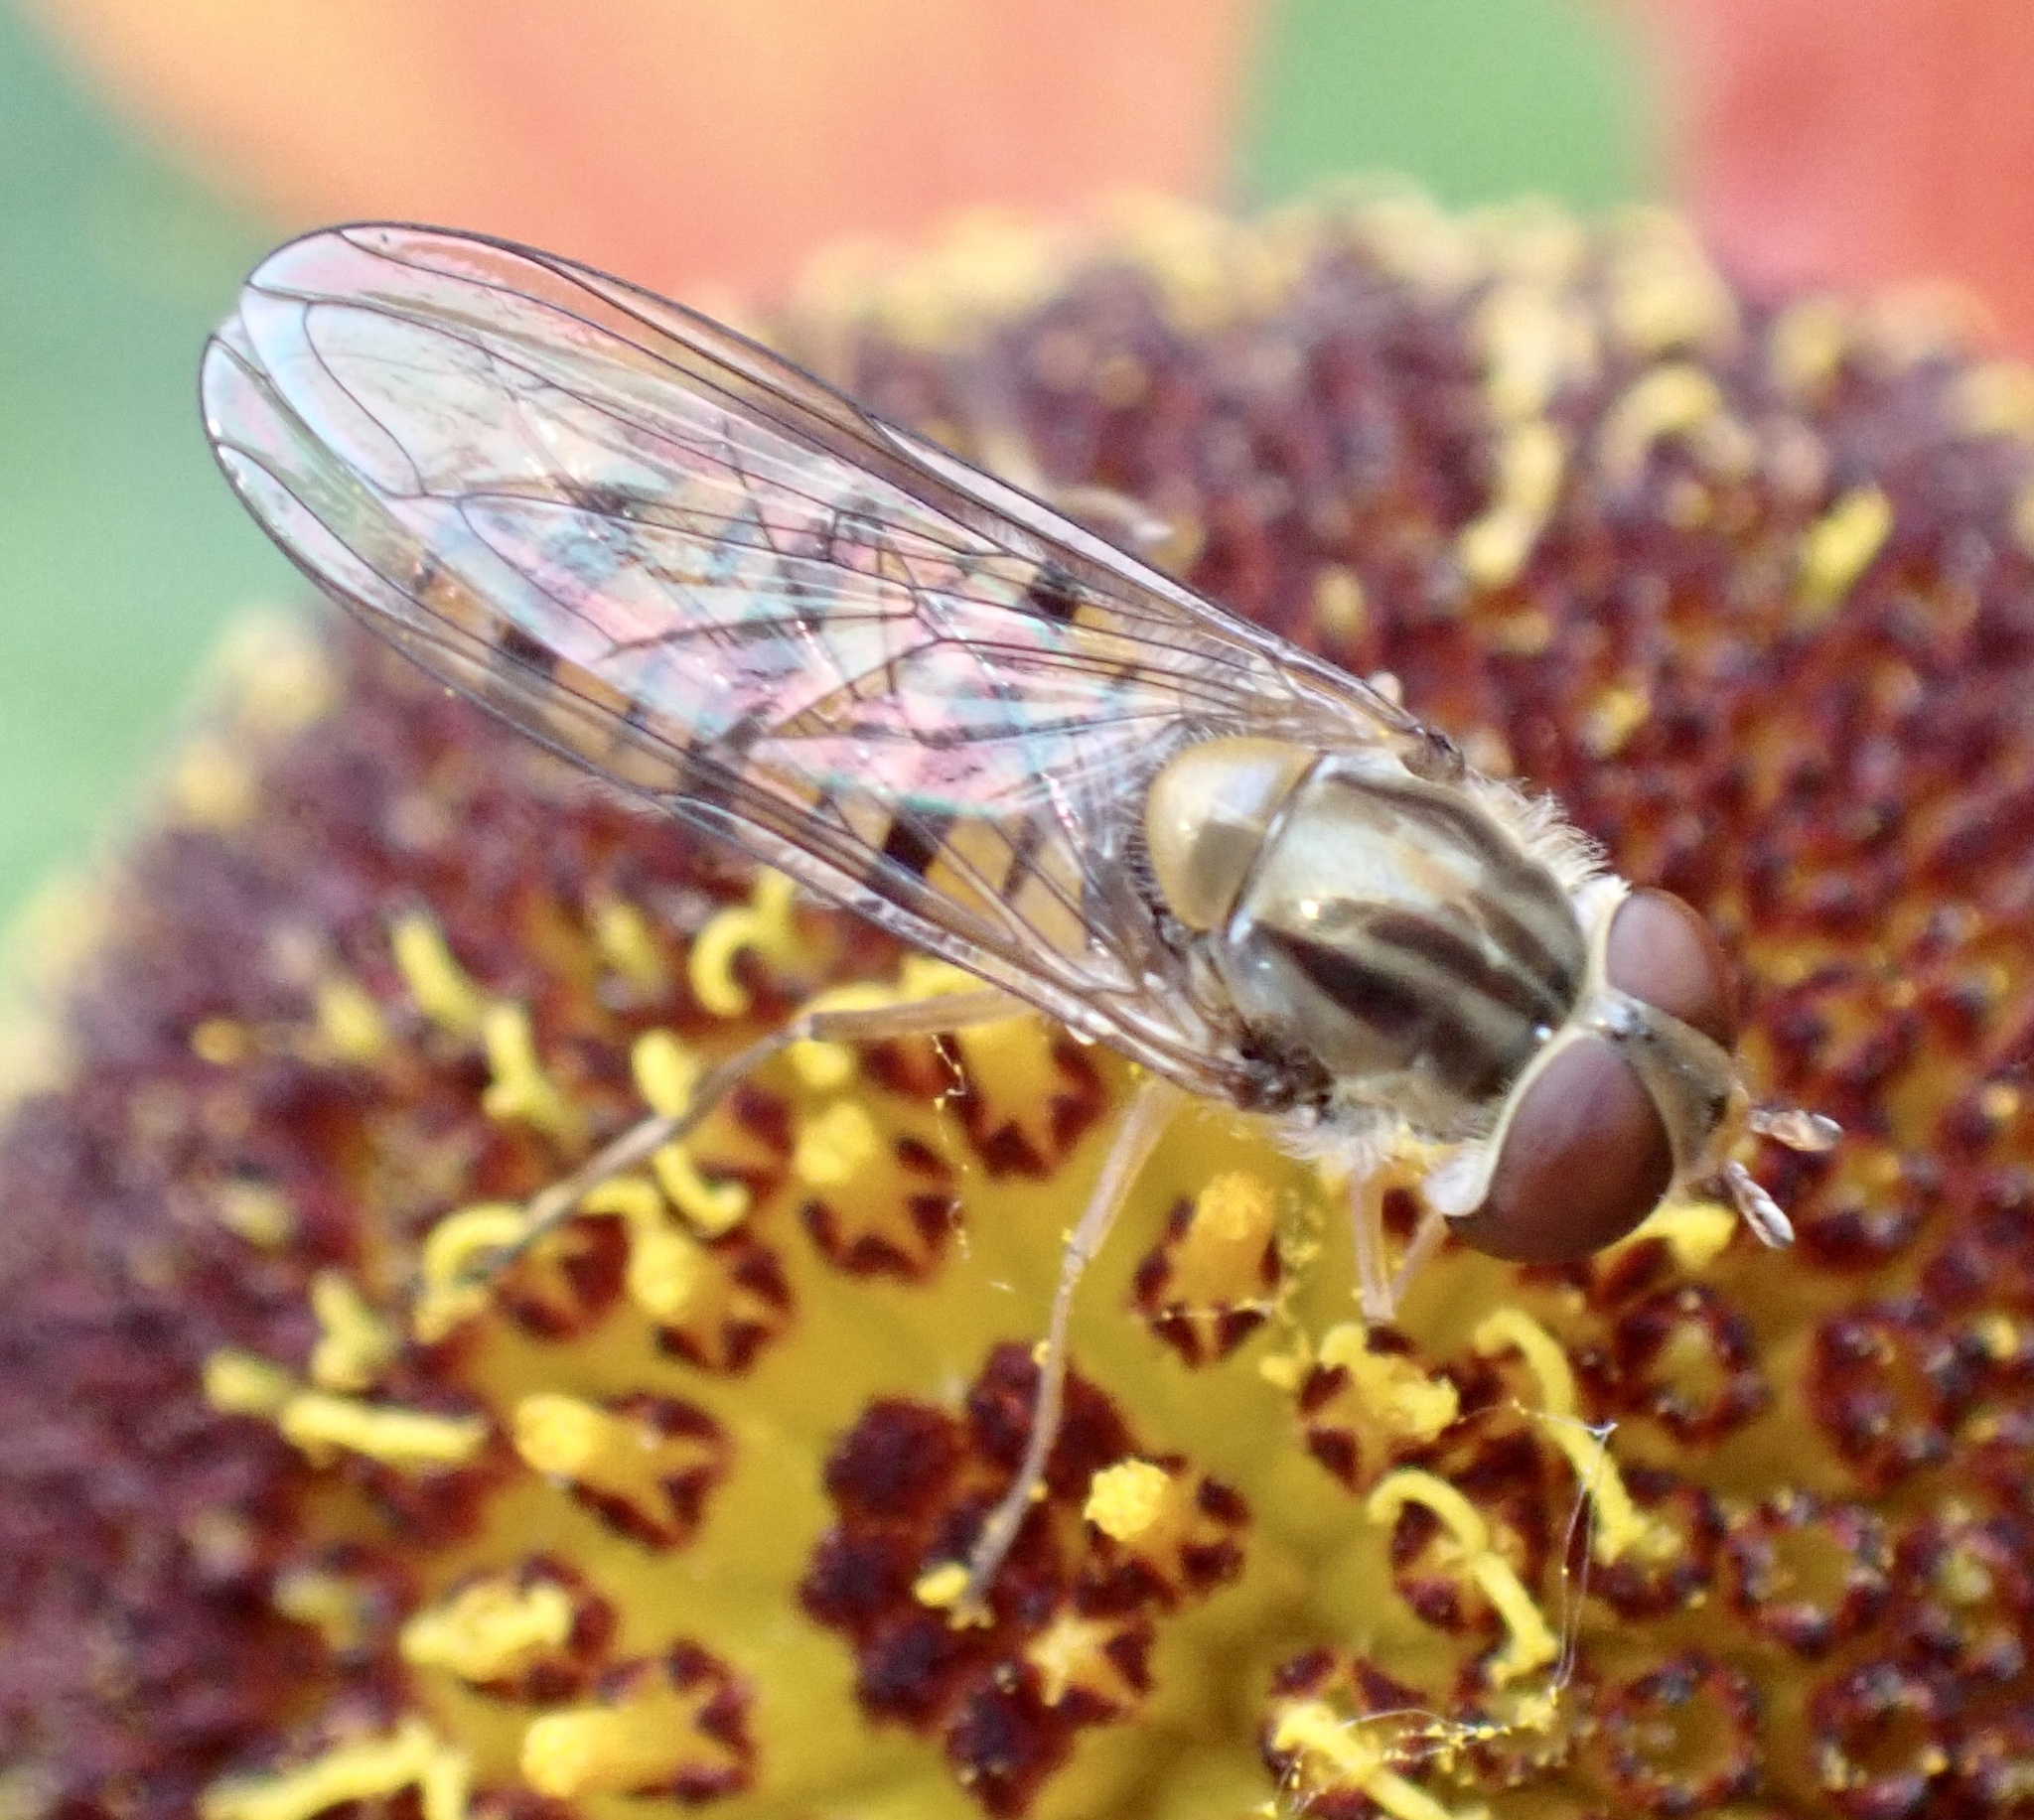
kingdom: Animalia
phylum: Arthropoda
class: Insecta
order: Diptera
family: Syrphidae
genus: Episyrphus
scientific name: Episyrphus balteatus
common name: Marmalade hoverfly
